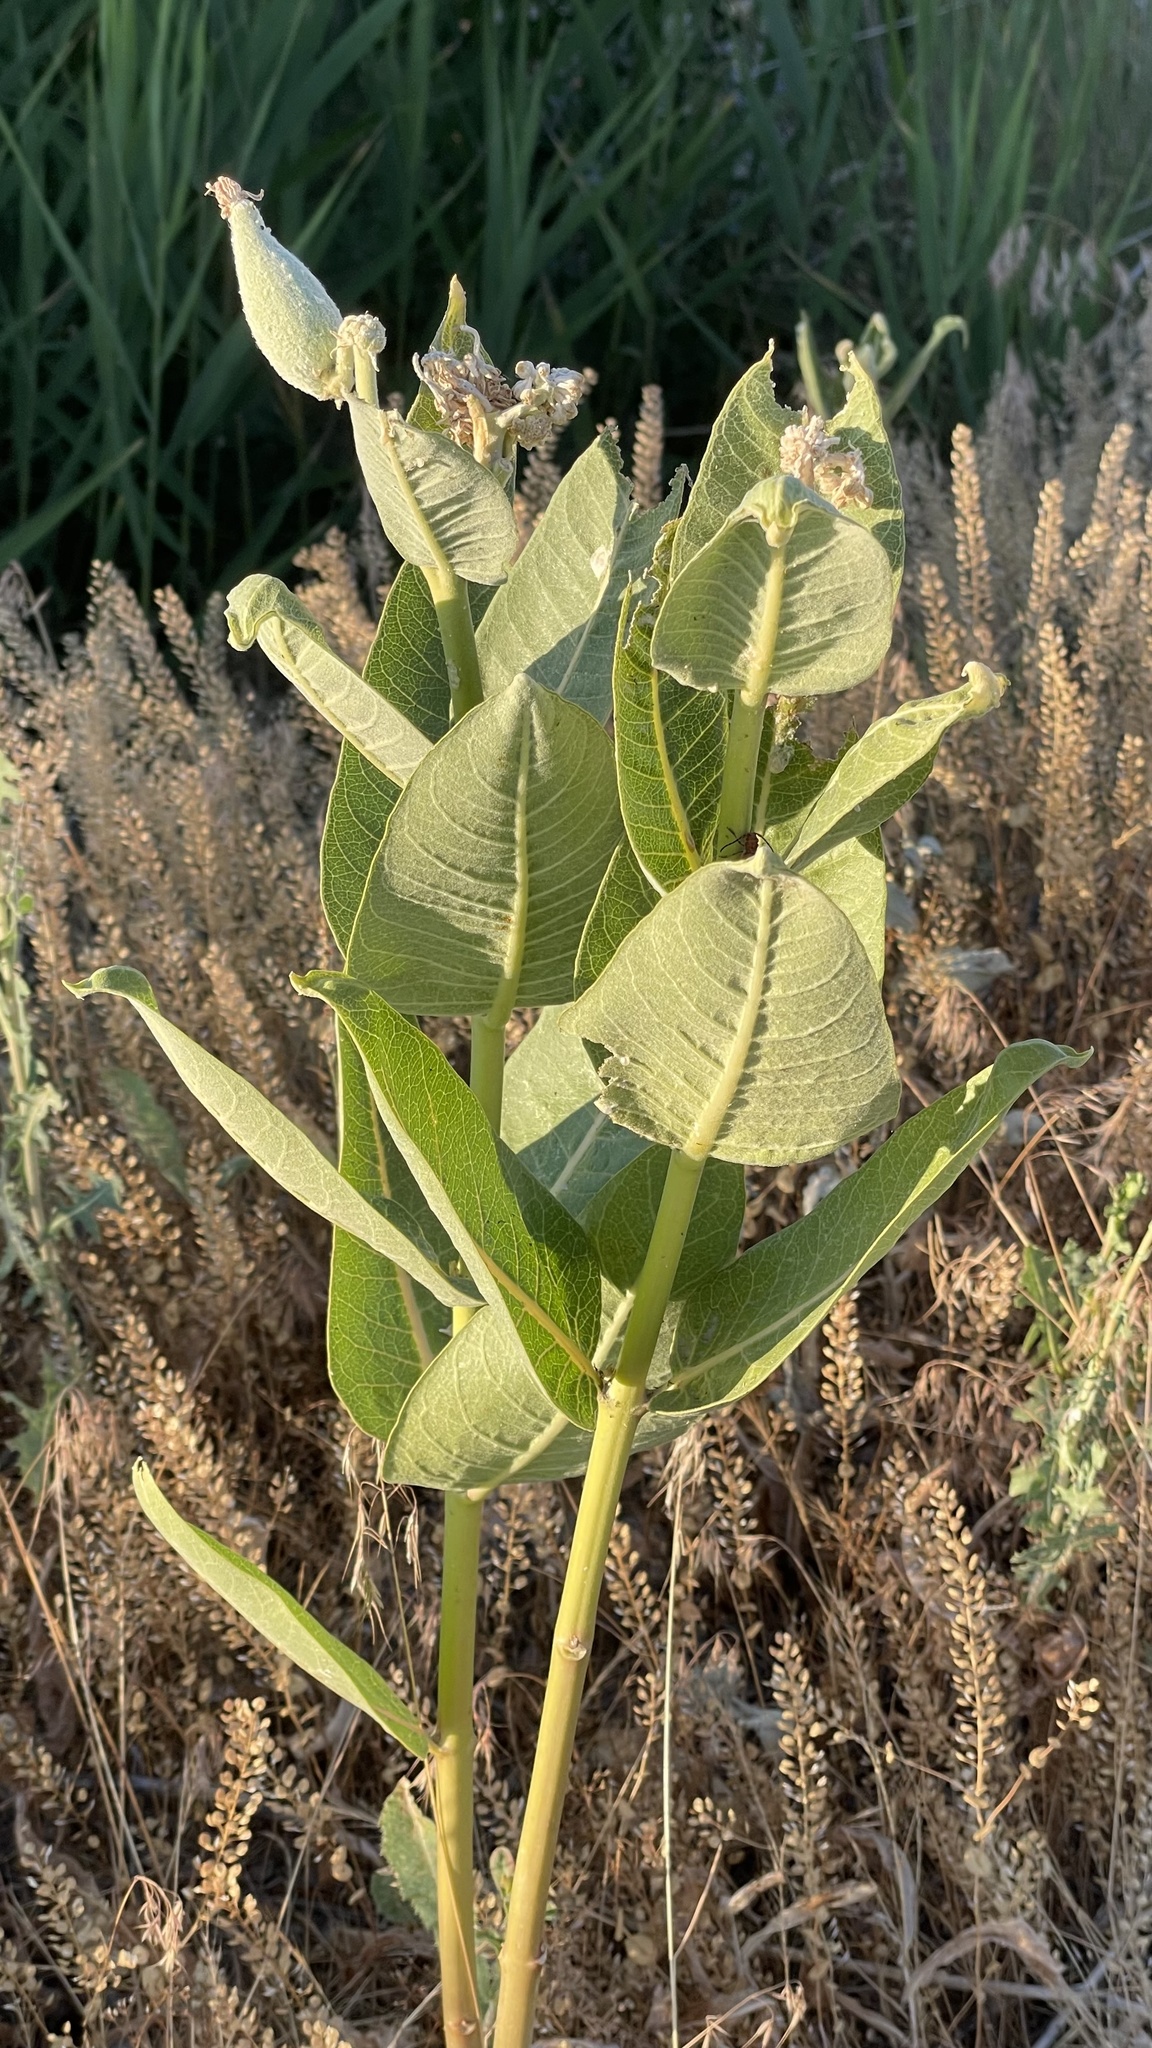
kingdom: Plantae
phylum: Tracheophyta
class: Magnoliopsida
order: Gentianales
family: Apocynaceae
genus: Asclepias
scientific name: Asclepias speciosa
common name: Showy milkweed
